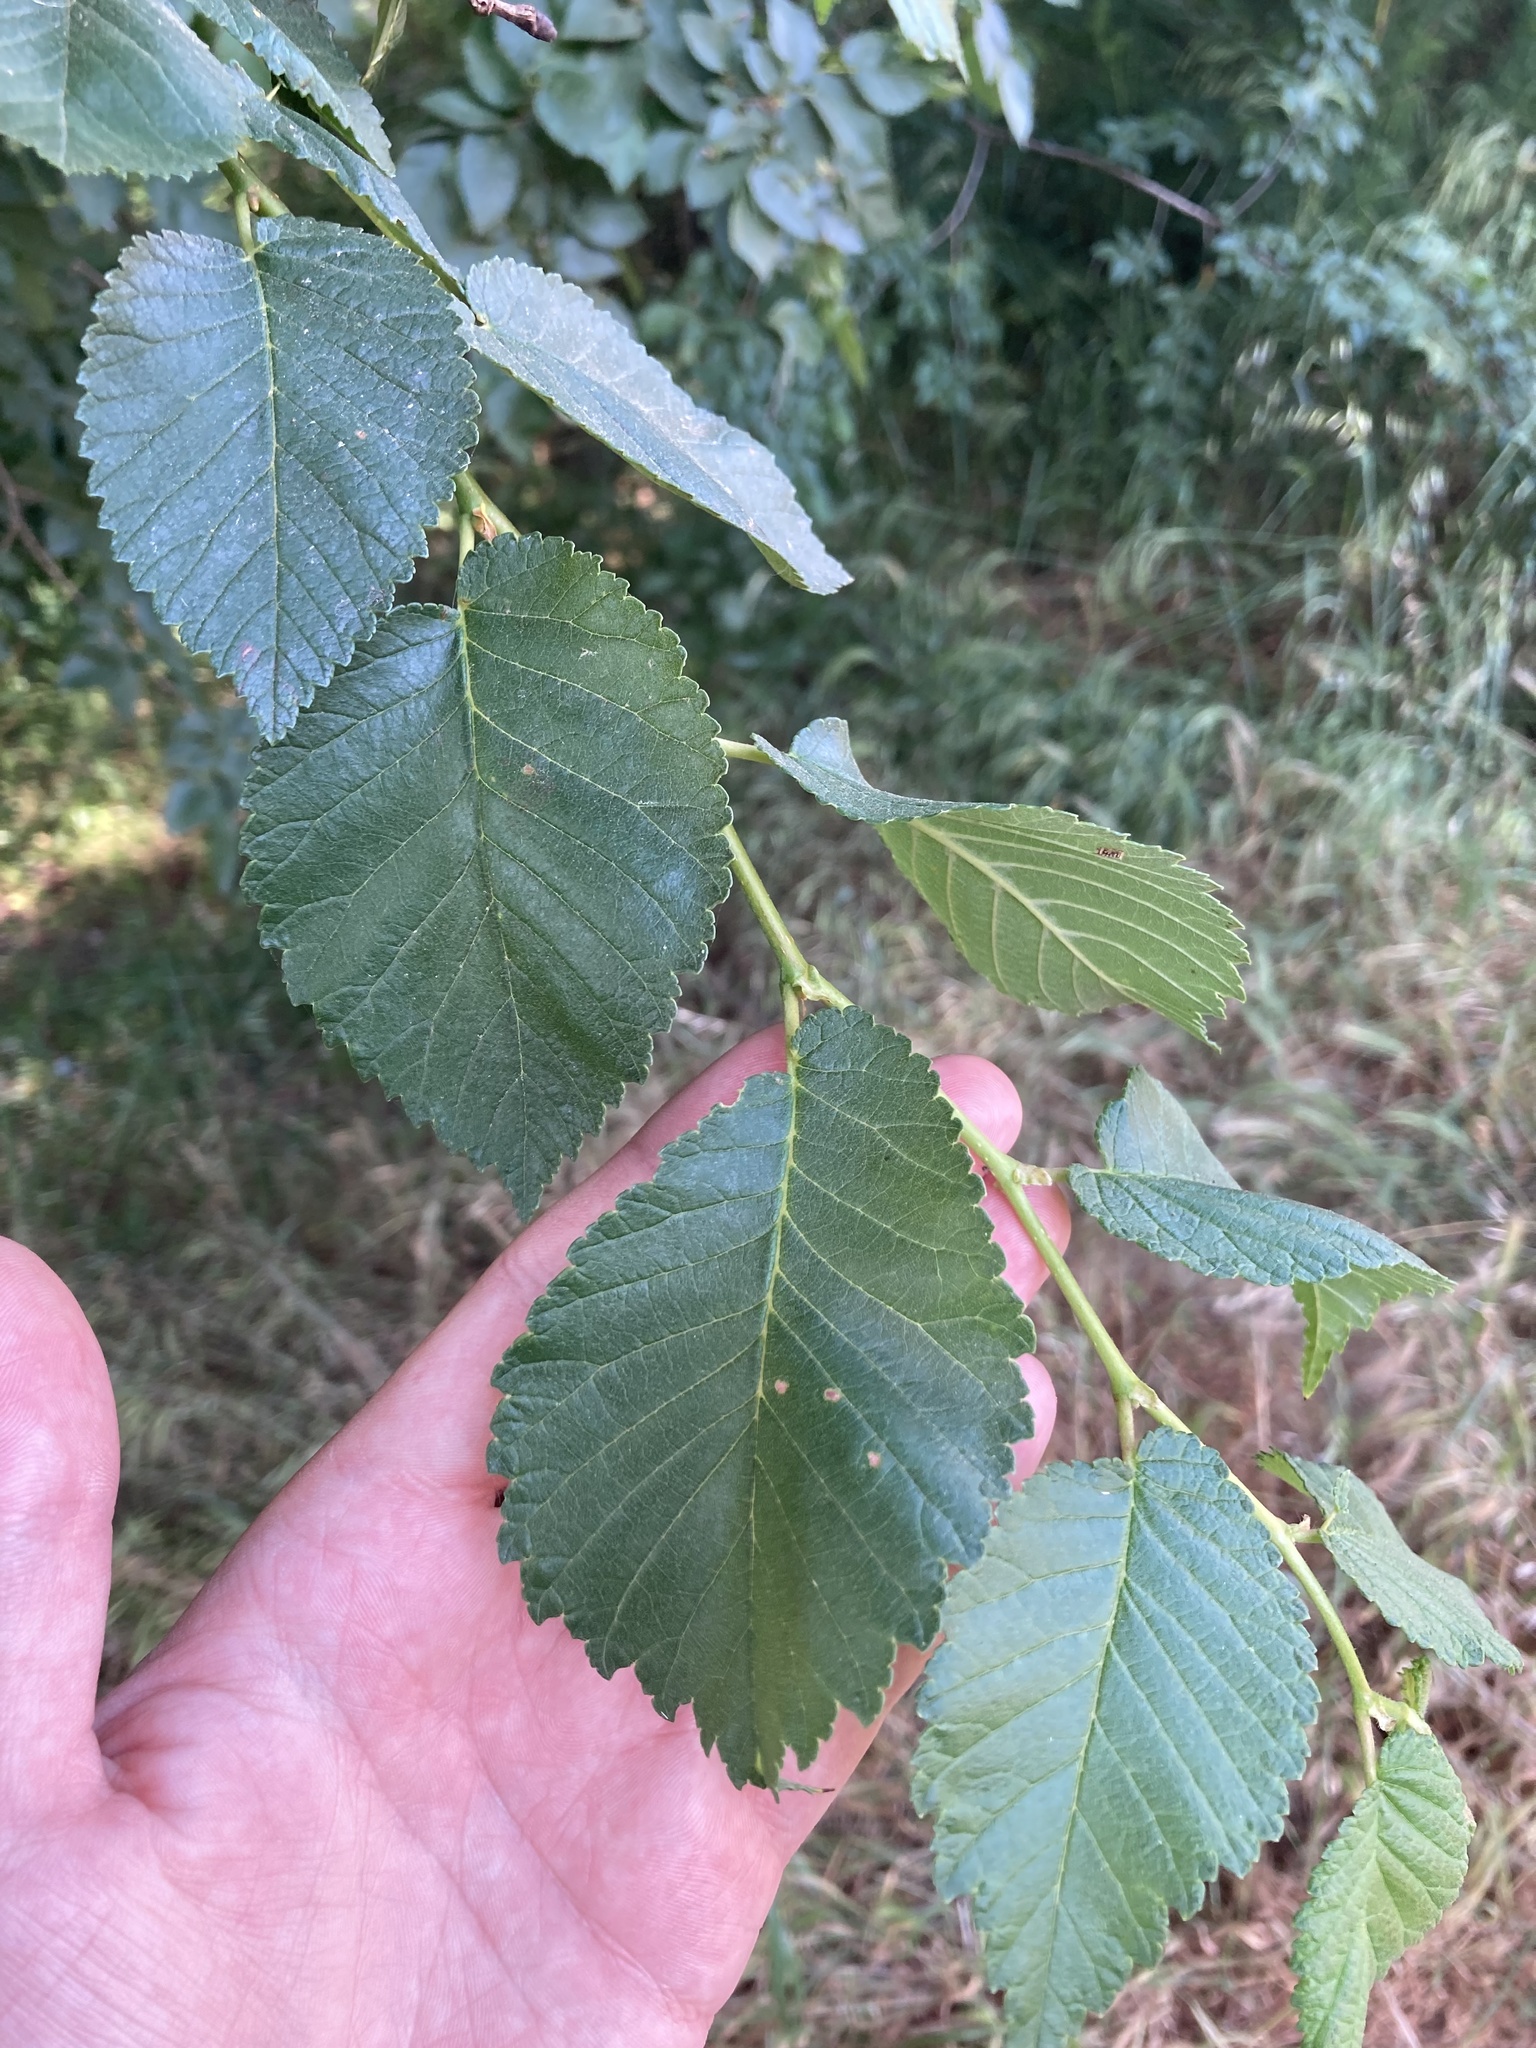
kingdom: Plantae
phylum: Tracheophyta
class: Magnoliopsida
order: Rosales
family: Ulmaceae
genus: Ulmus
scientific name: Ulmus minor
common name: Small-leaved elm
